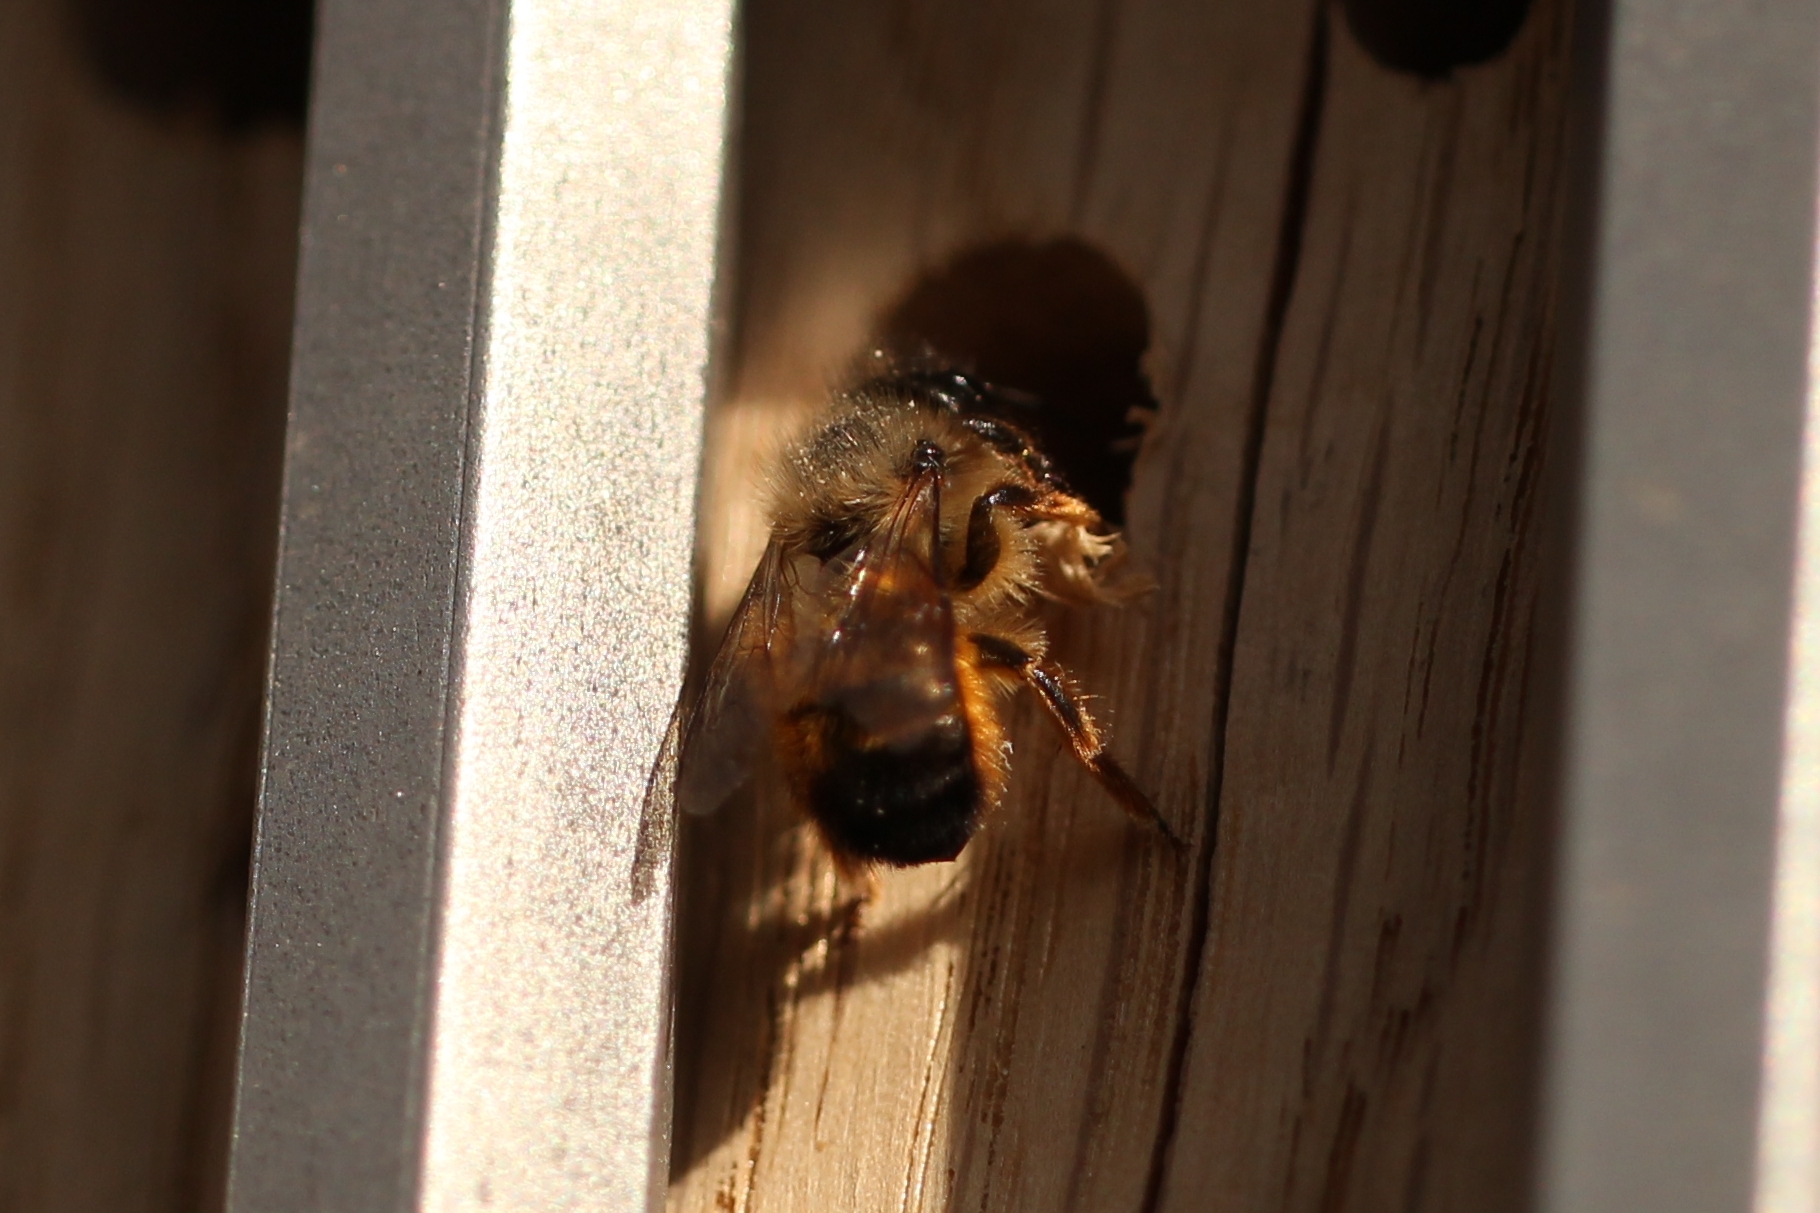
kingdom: Animalia
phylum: Arthropoda
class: Insecta
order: Hymenoptera
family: Megachilidae
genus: Osmia
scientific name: Osmia bicornis
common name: Red mason bee
